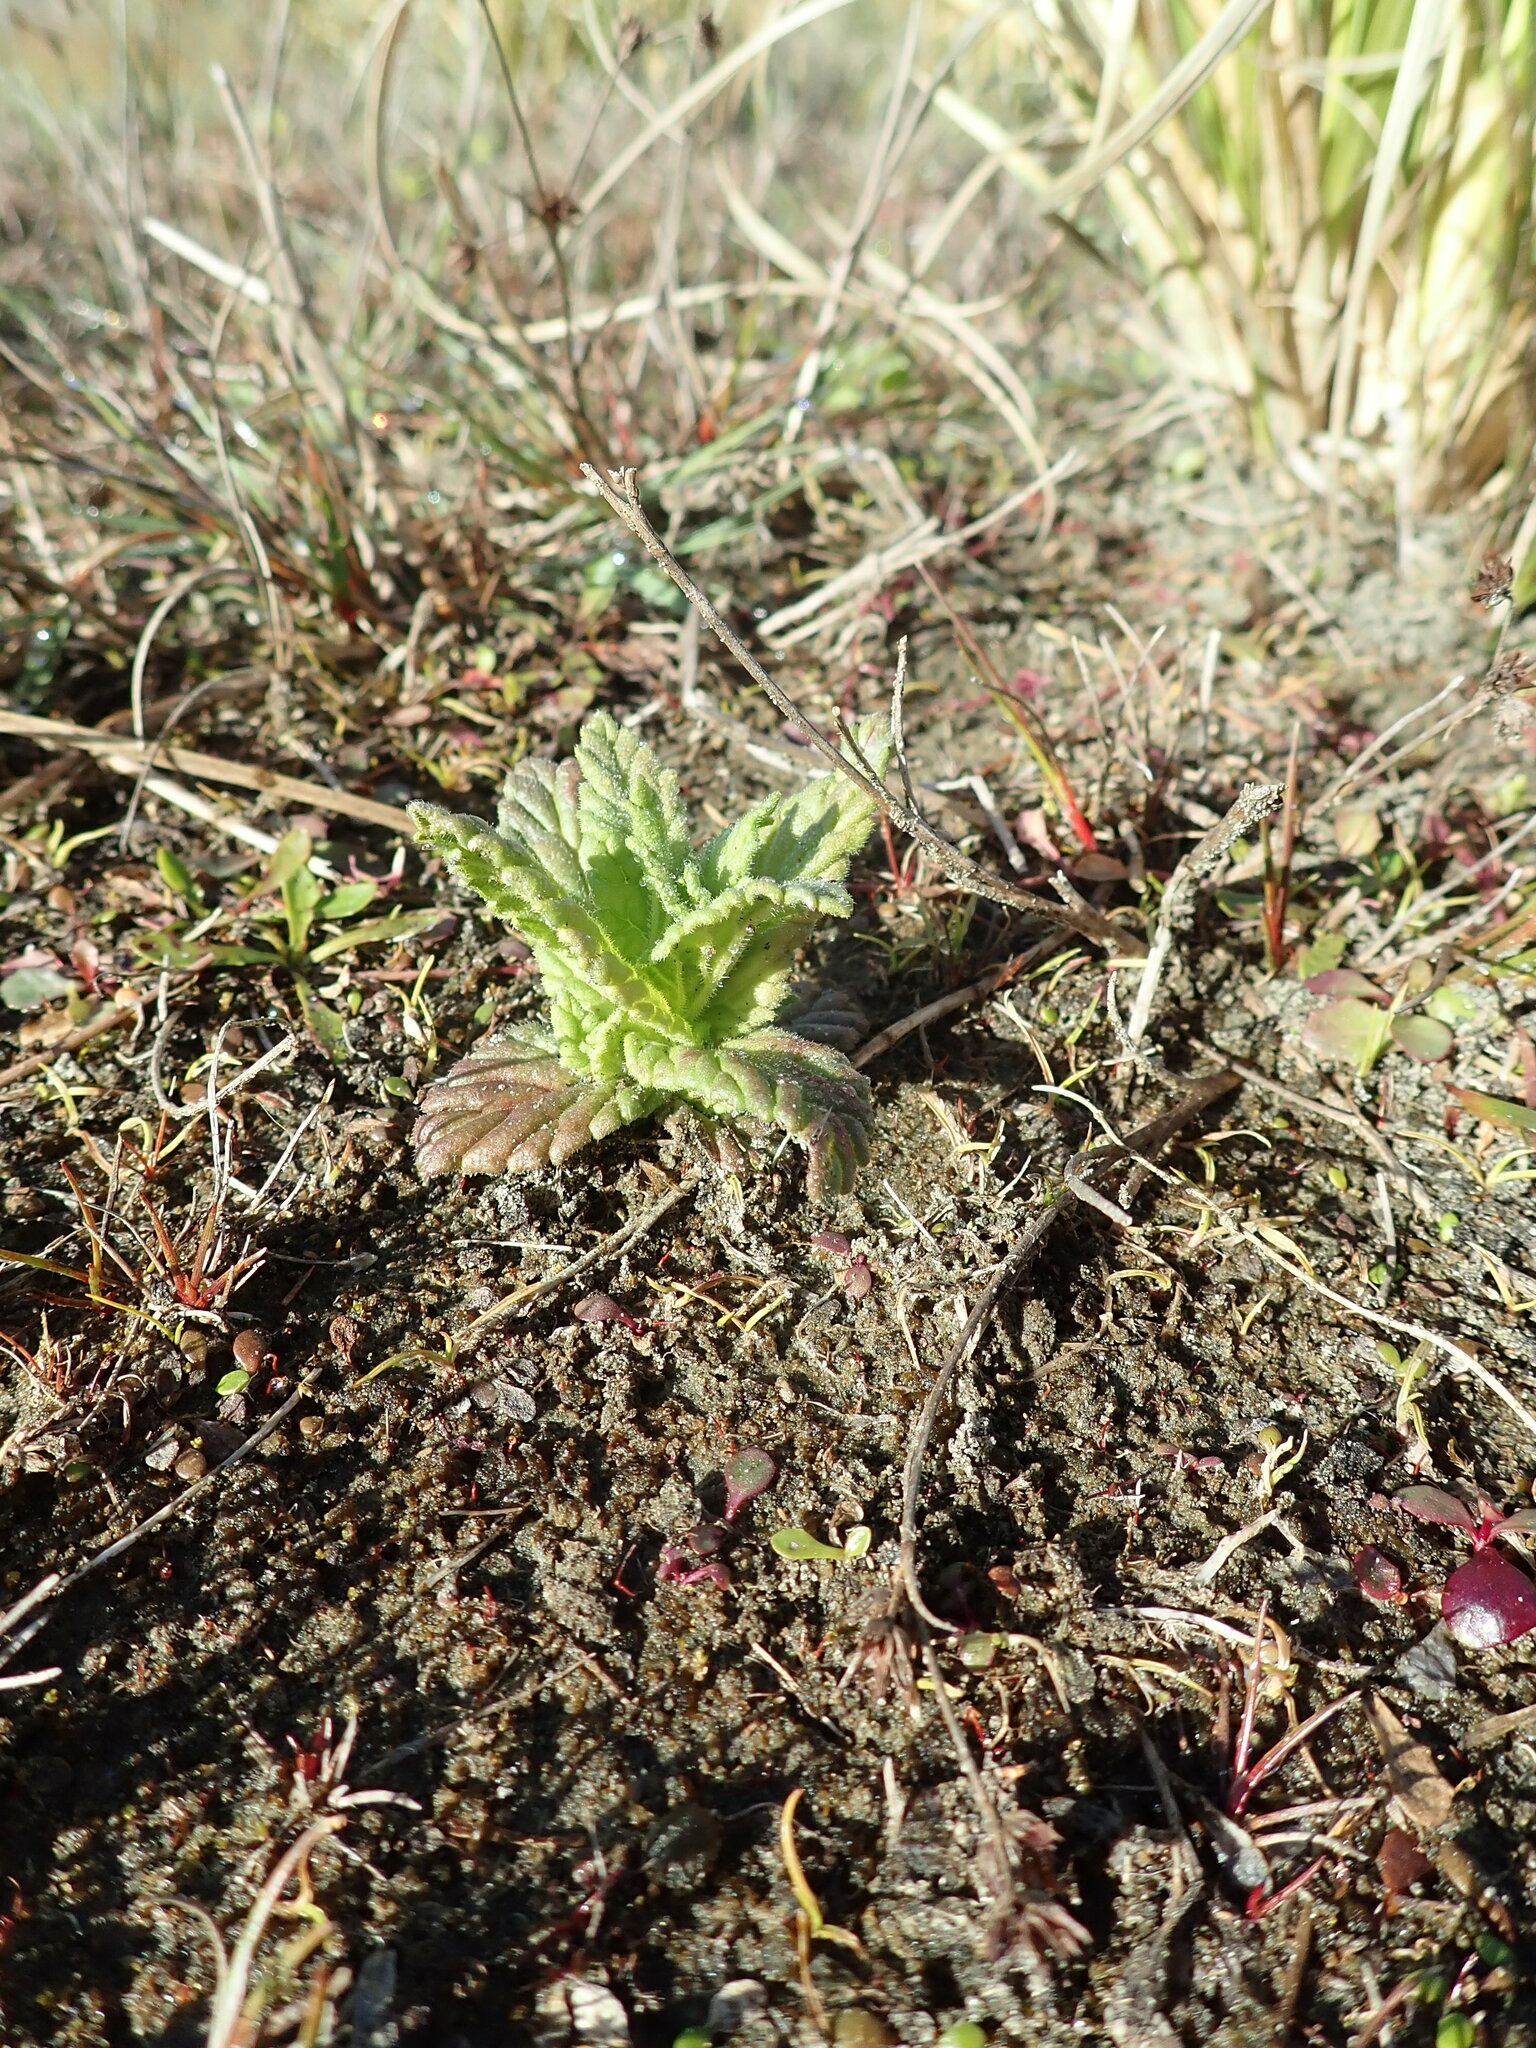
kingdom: Plantae
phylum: Tracheophyta
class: Magnoliopsida
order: Lamiales
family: Orobanchaceae
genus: Bellardia
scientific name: Bellardia viscosa
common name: Sticky parentucellia
